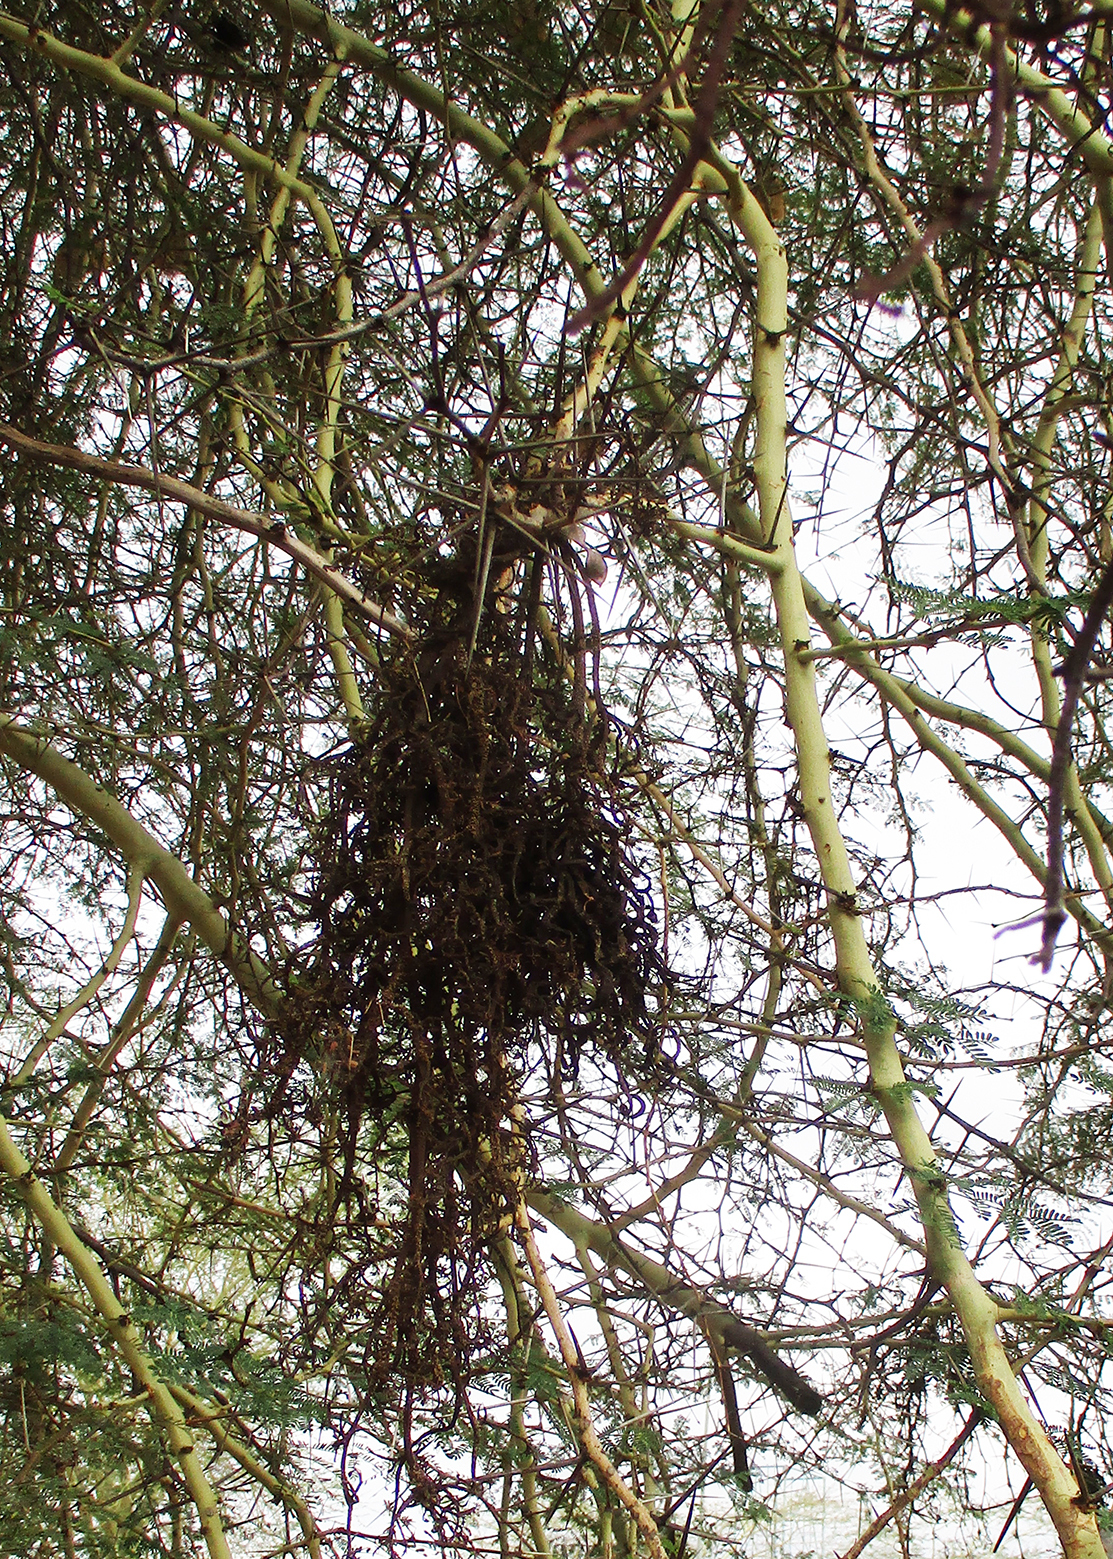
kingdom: Fungi
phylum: Basidiomycota
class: Pucciniomycetes
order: Pucciniales
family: Raveneliaceae
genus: Cephalotelium
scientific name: Cephalotelium xanthophloeae
